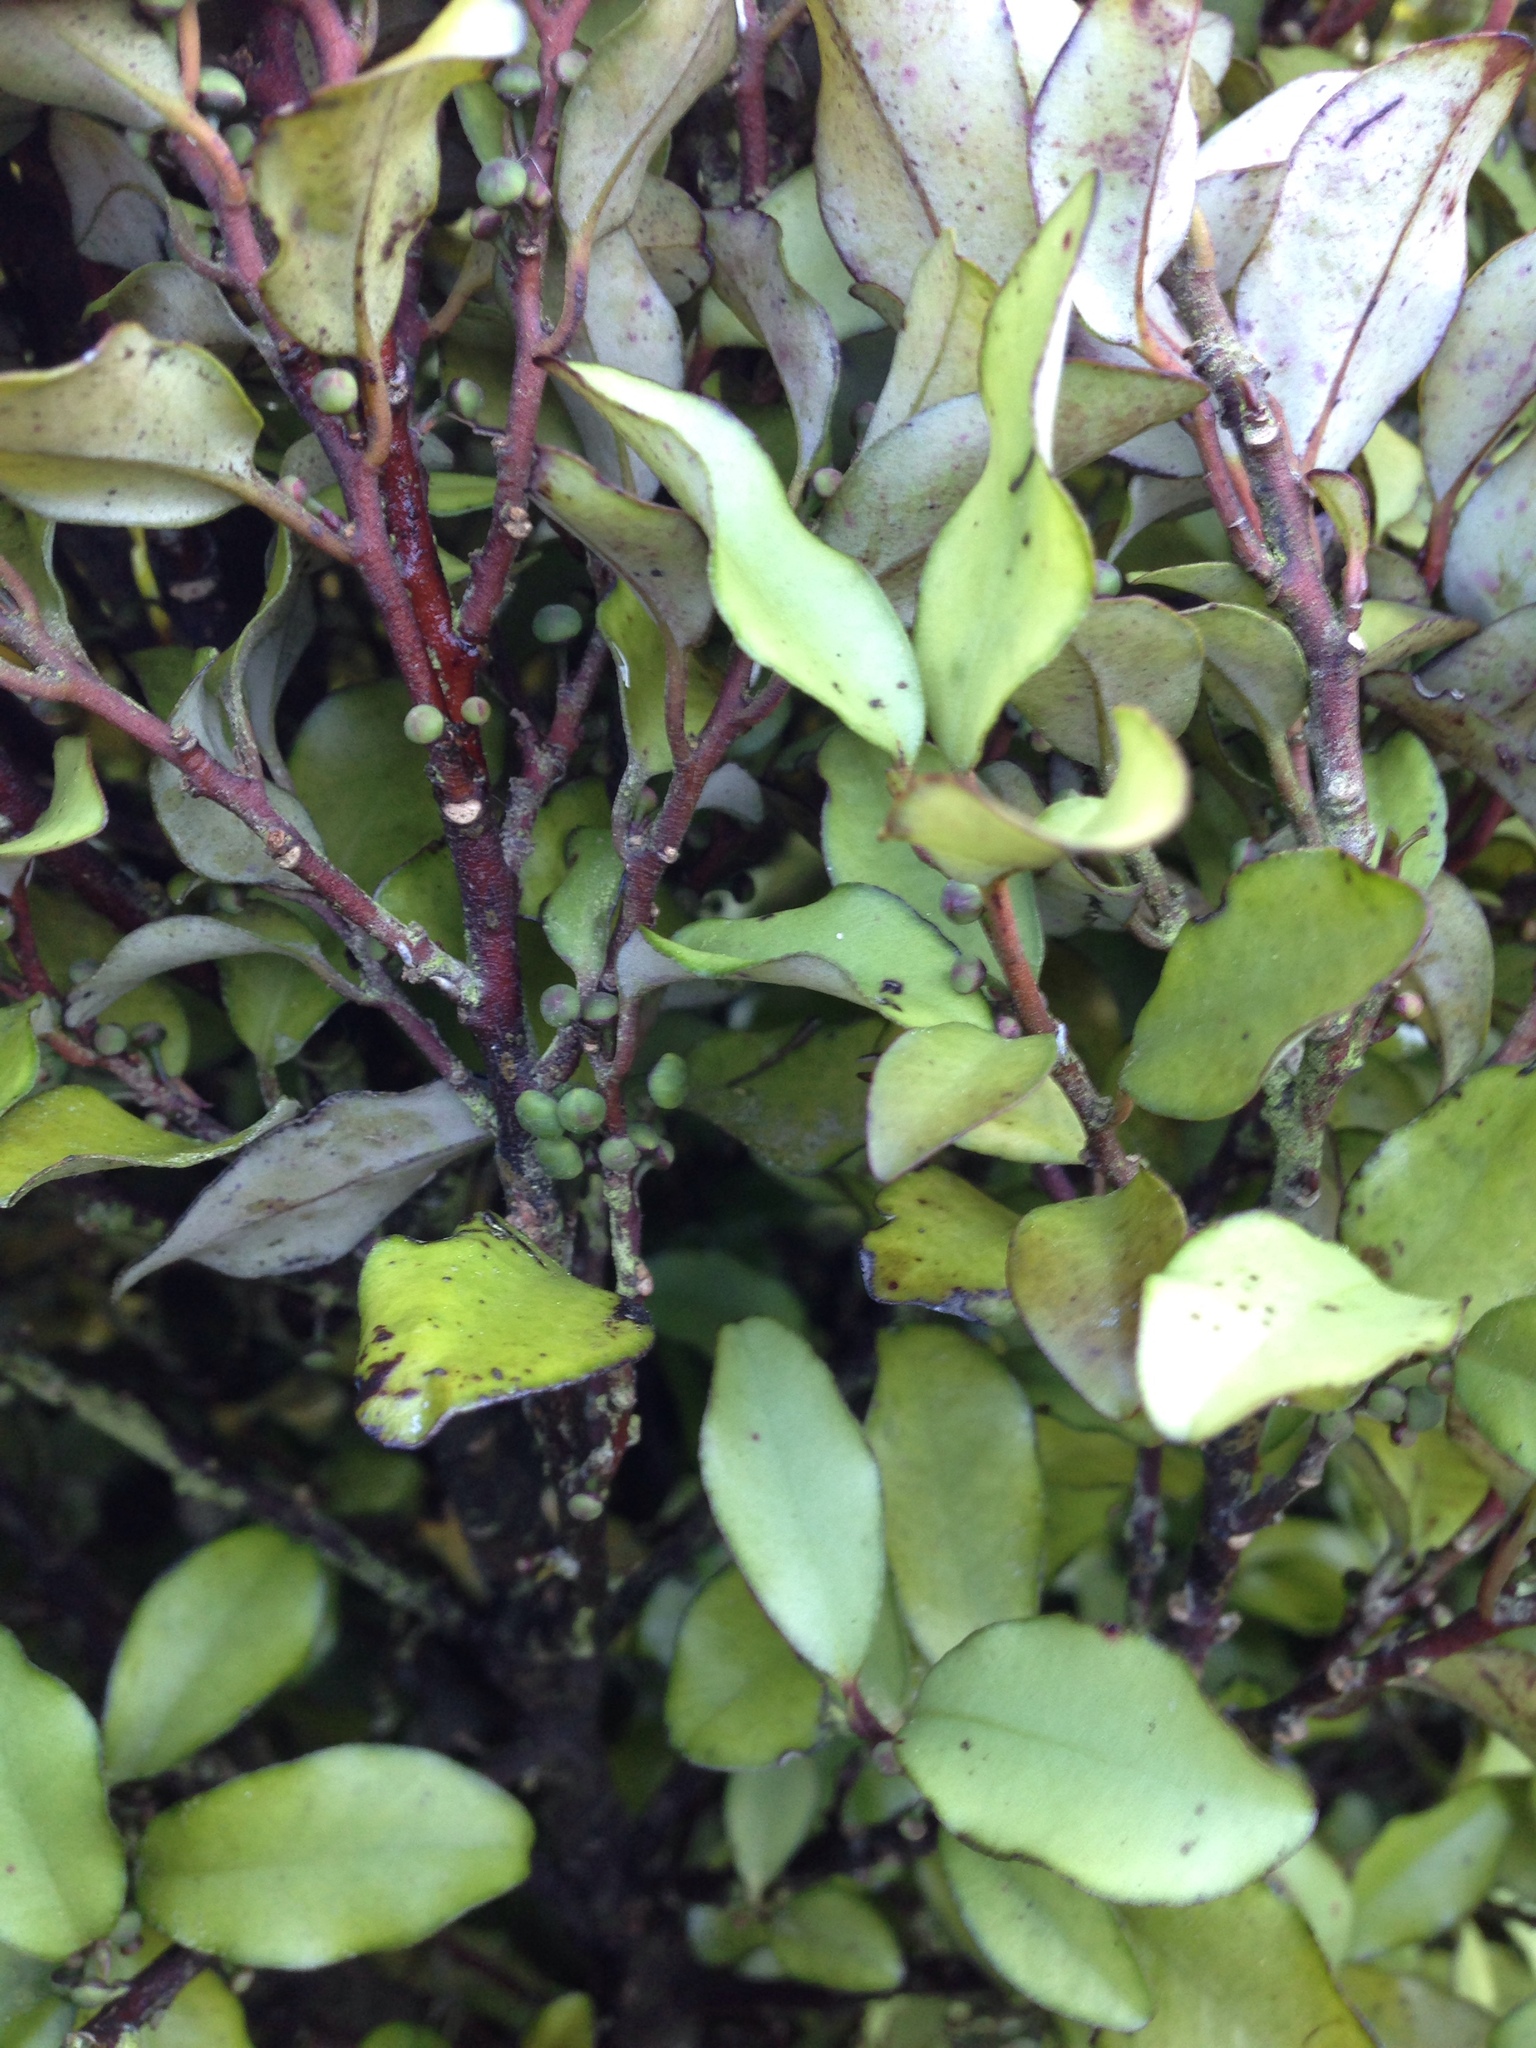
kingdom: Plantae
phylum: Tracheophyta
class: Magnoliopsida
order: Canellales
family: Winteraceae
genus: Pseudowintera
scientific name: Pseudowintera colorata
